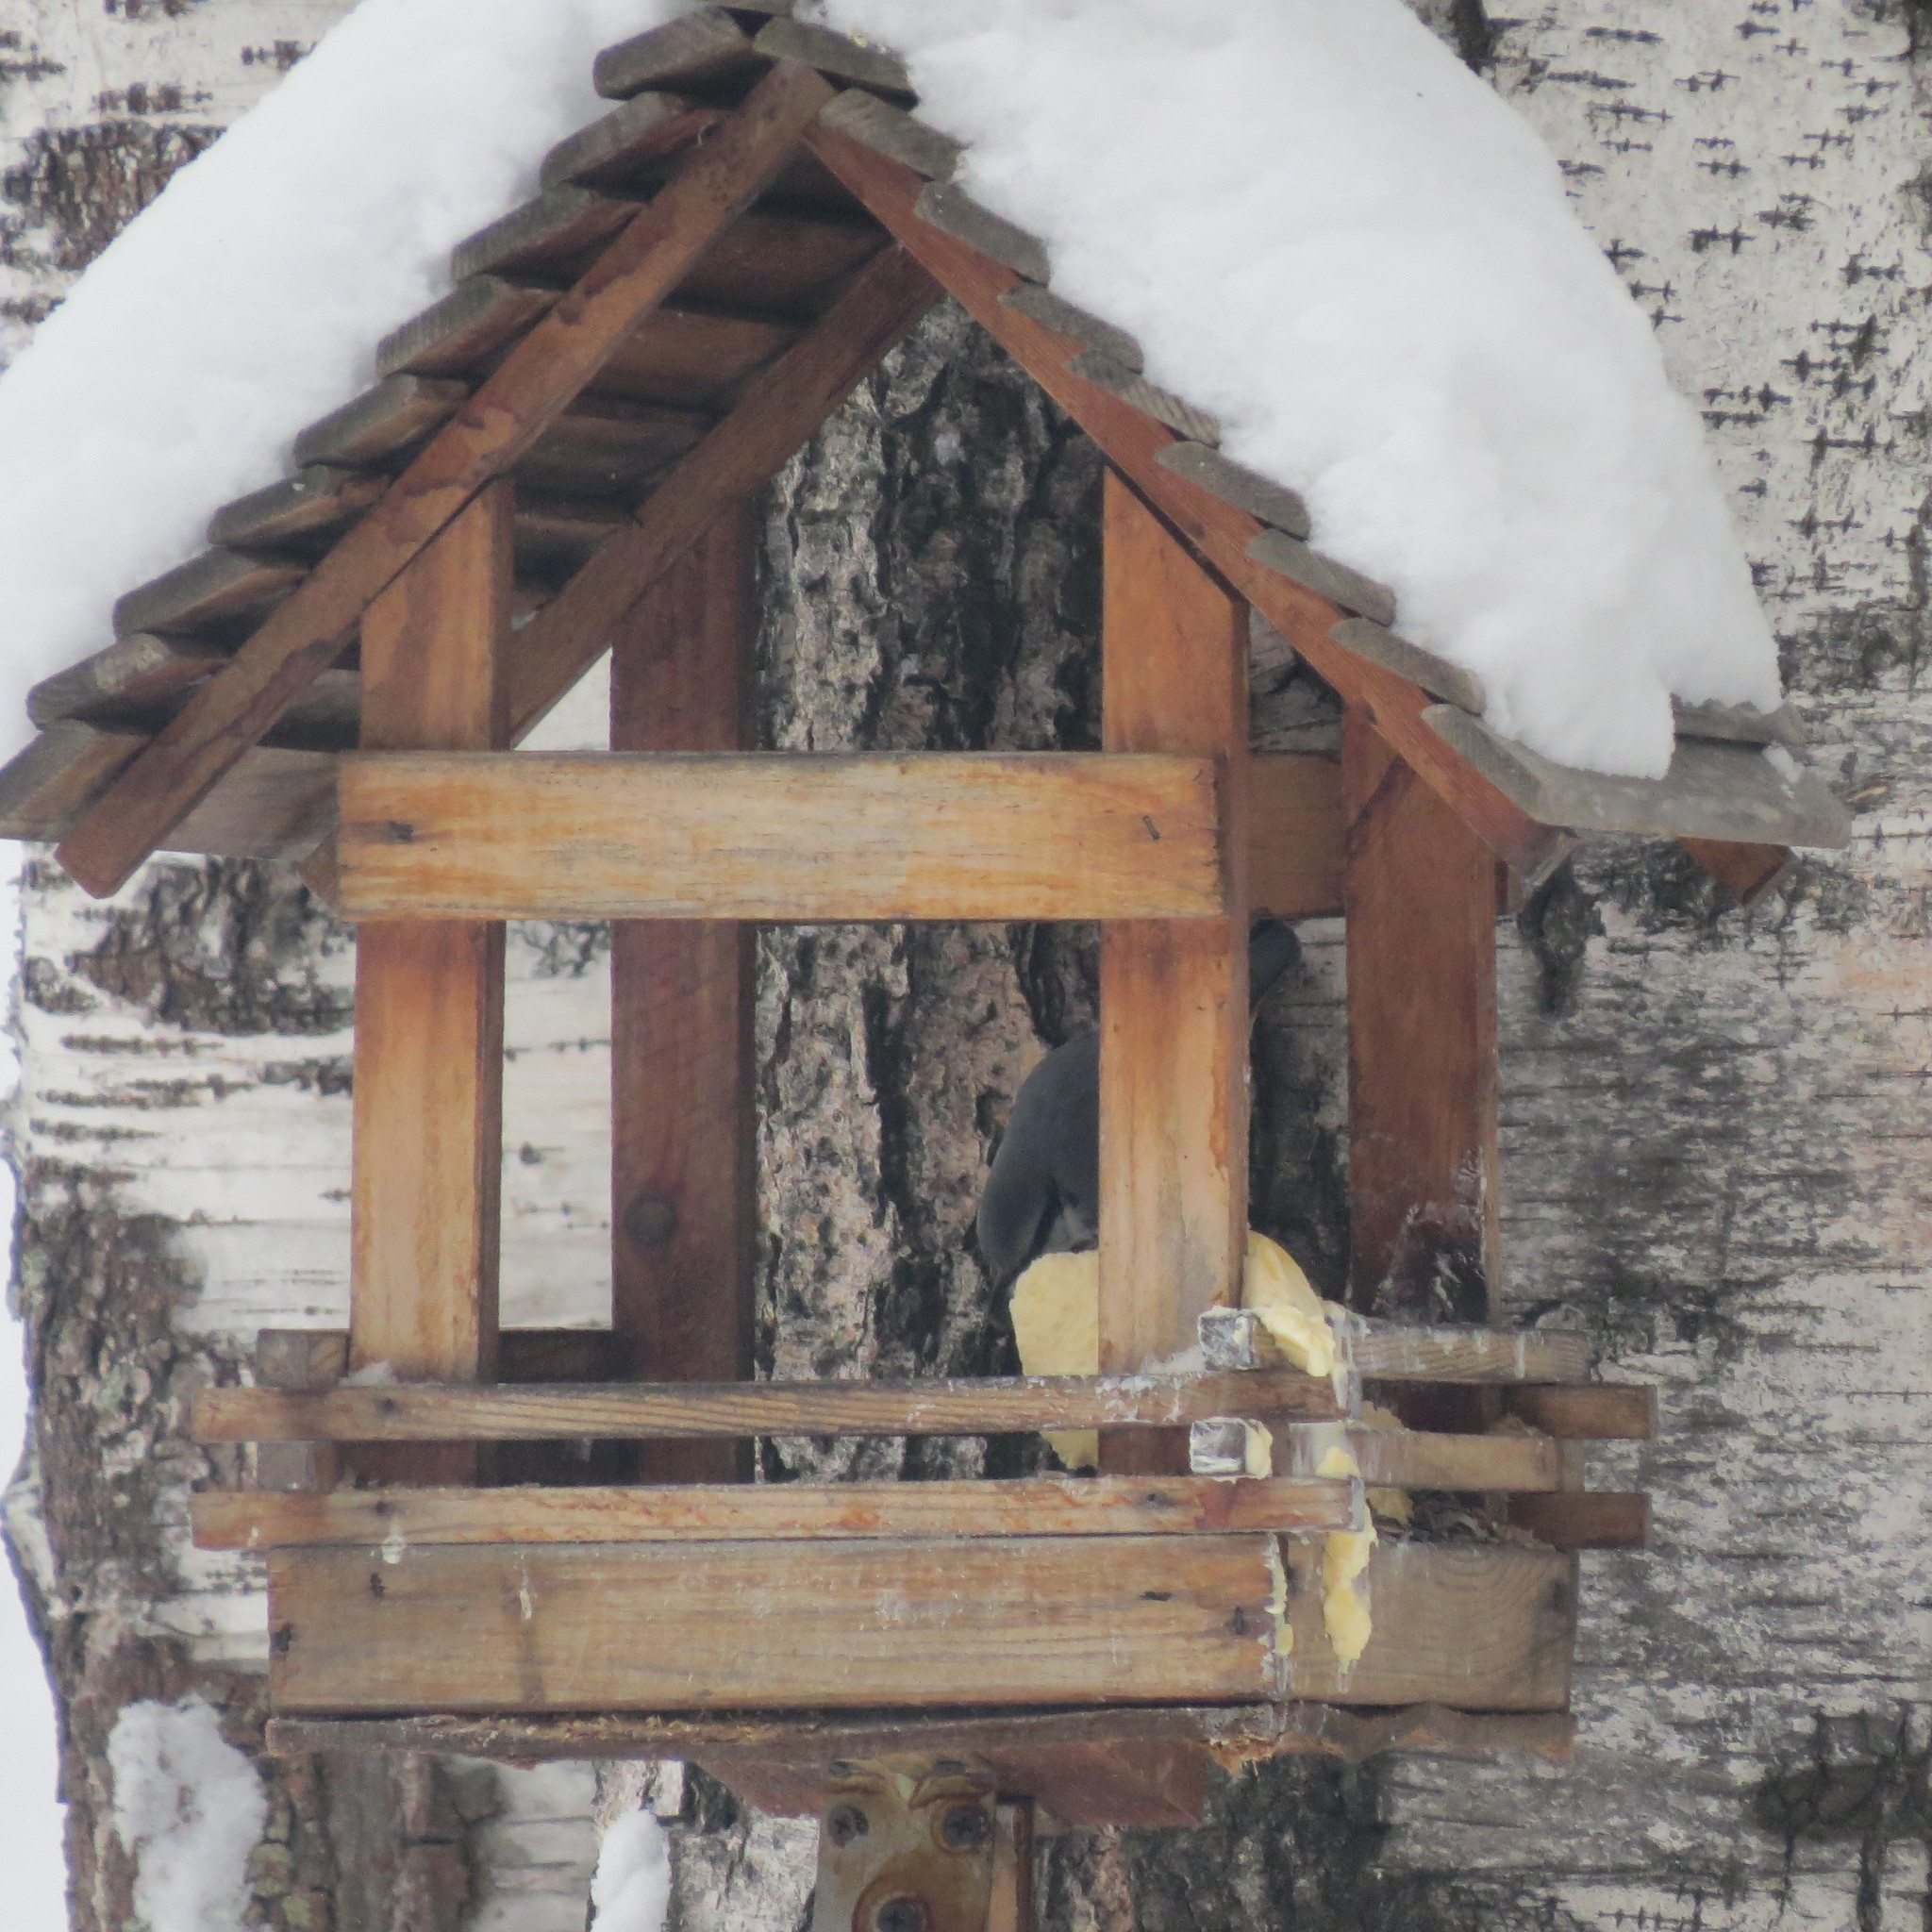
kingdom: Animalia
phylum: Chordata
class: Aves
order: Passeriformes
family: Sittidae
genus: Sitta
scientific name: Sitta europaea
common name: Eurasian nuthatch
